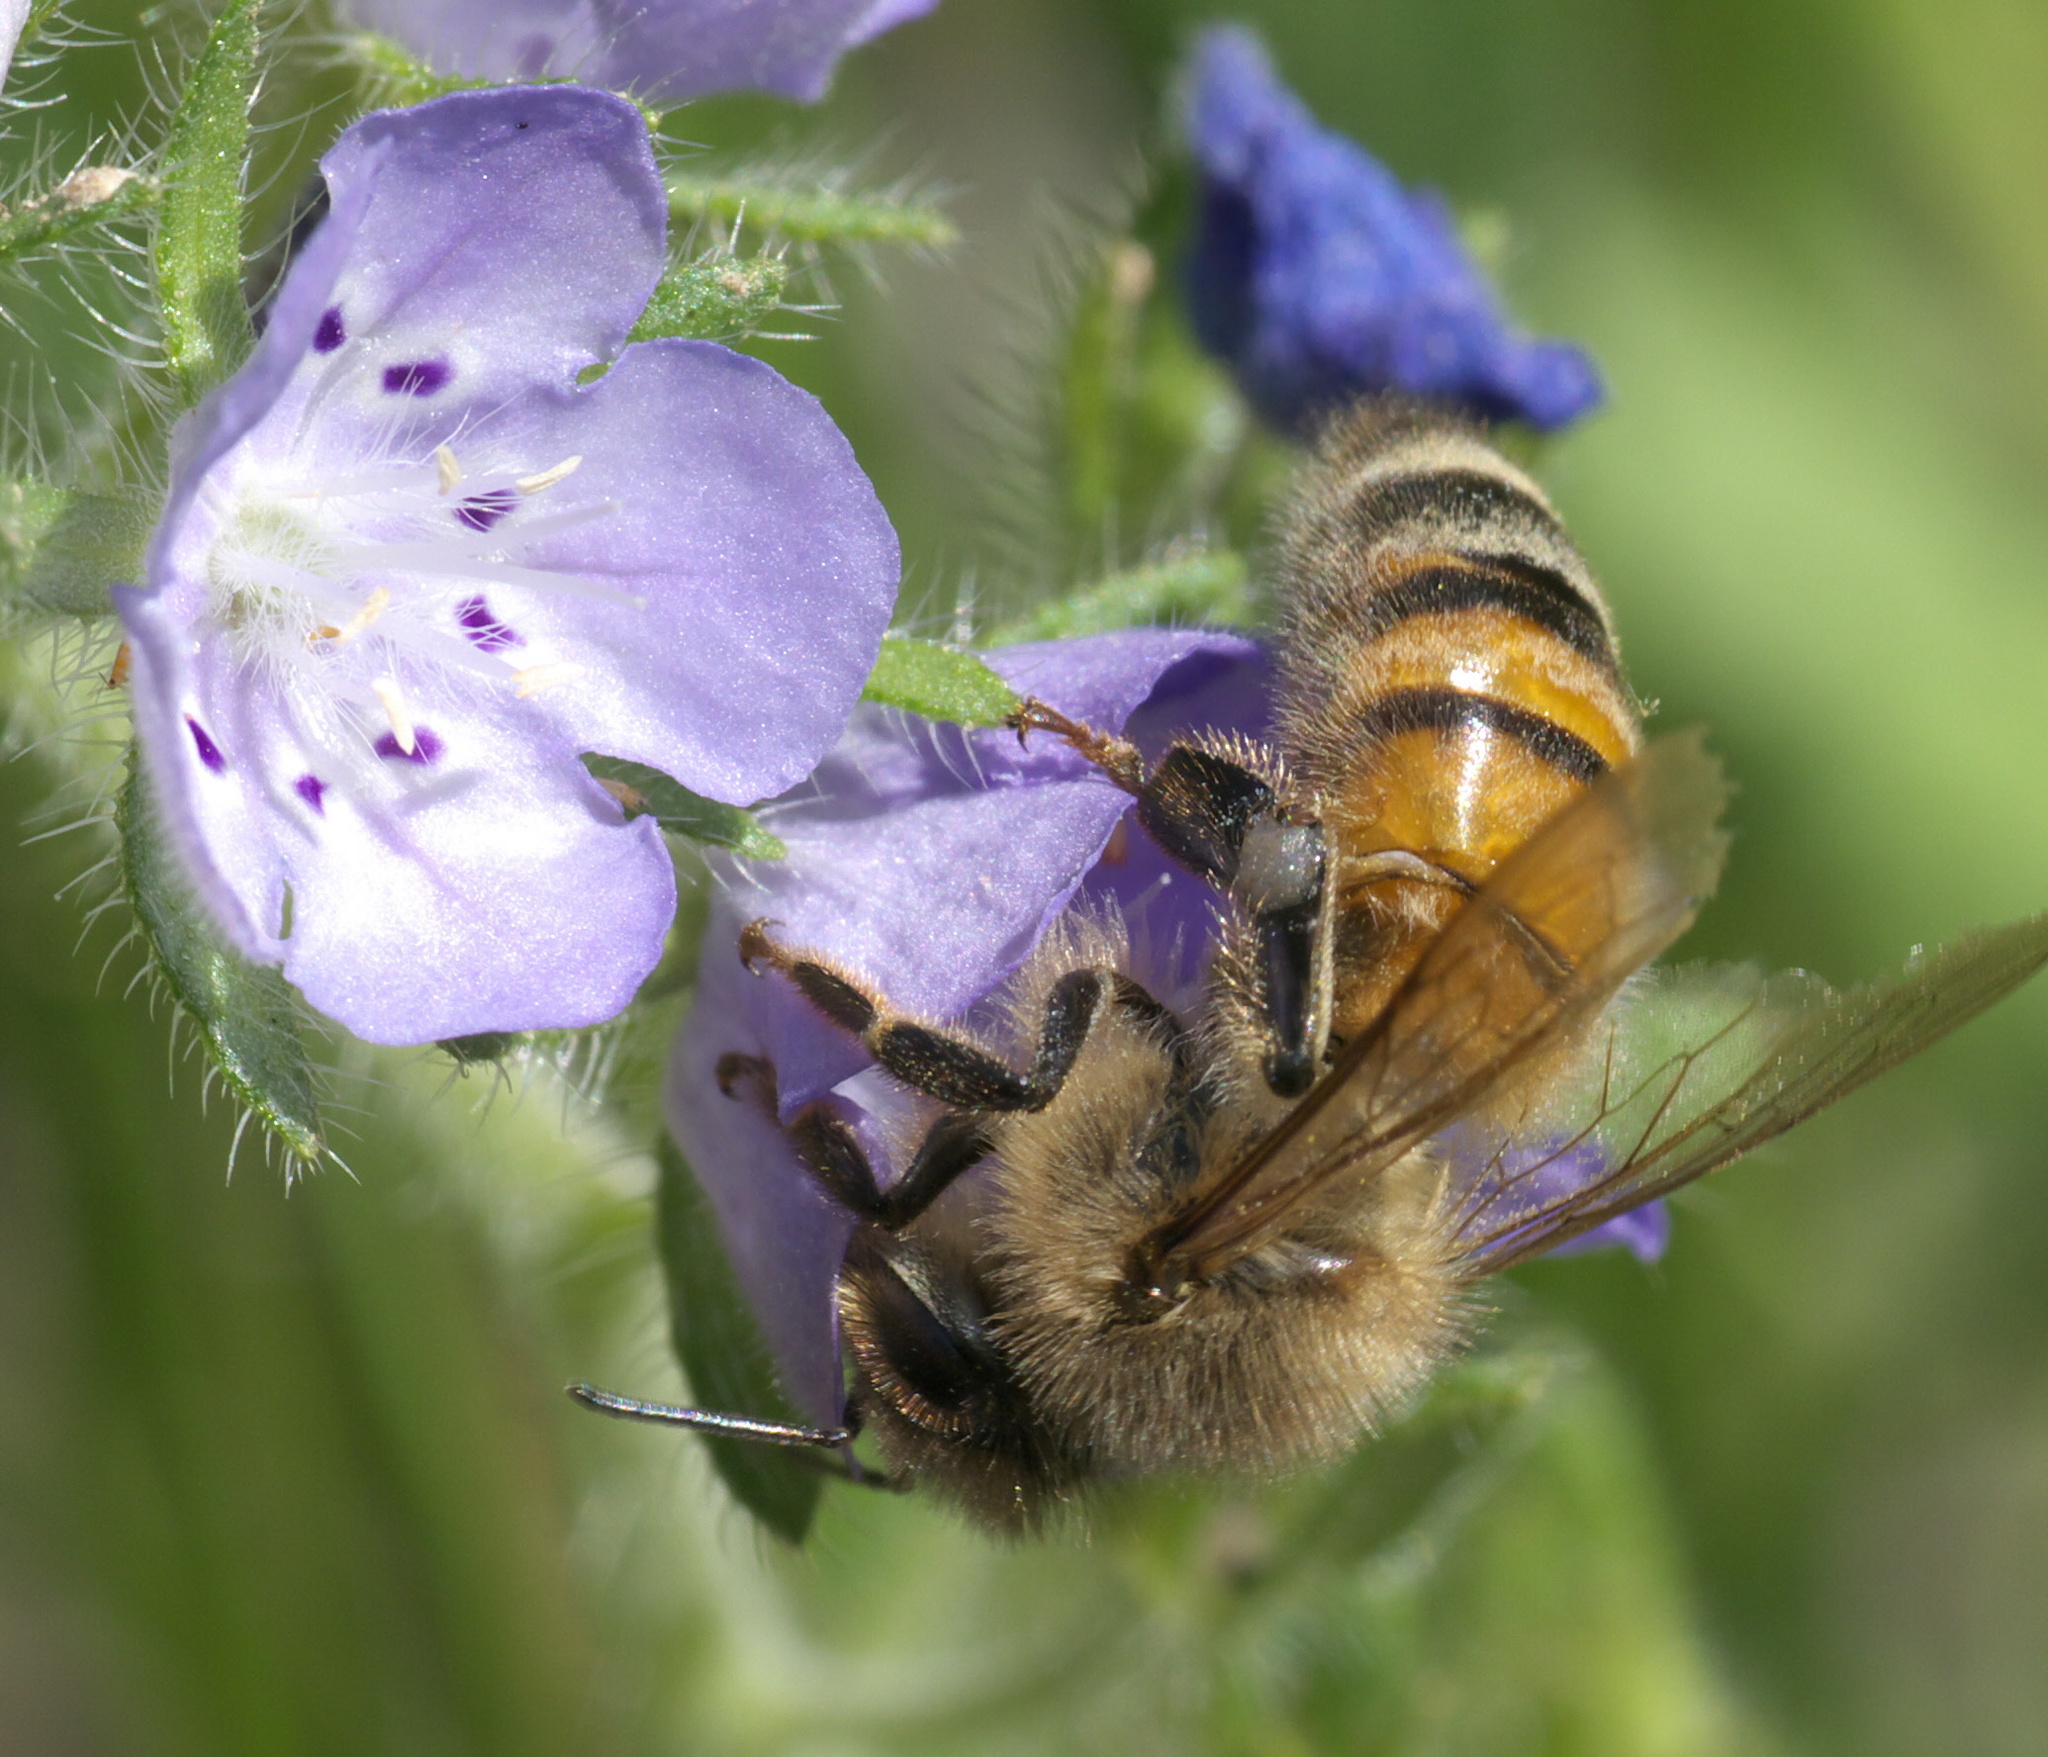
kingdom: Animalia
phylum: Arthropoda
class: Insecta
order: Hymenoptera
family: Apidae
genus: Apis
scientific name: Apis mellifera
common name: Honey bee
